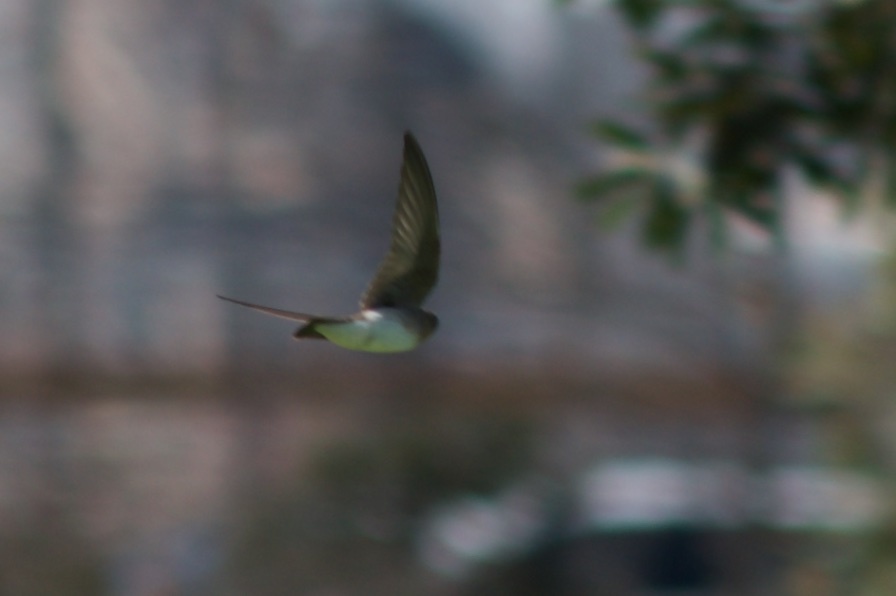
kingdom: Animalia
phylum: Chordata
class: Aves
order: Passeriformes
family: Hirundinidae
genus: Stelgidopteryx
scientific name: Stelgidopteryx serripennis
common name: Northern rough-winged swallow
